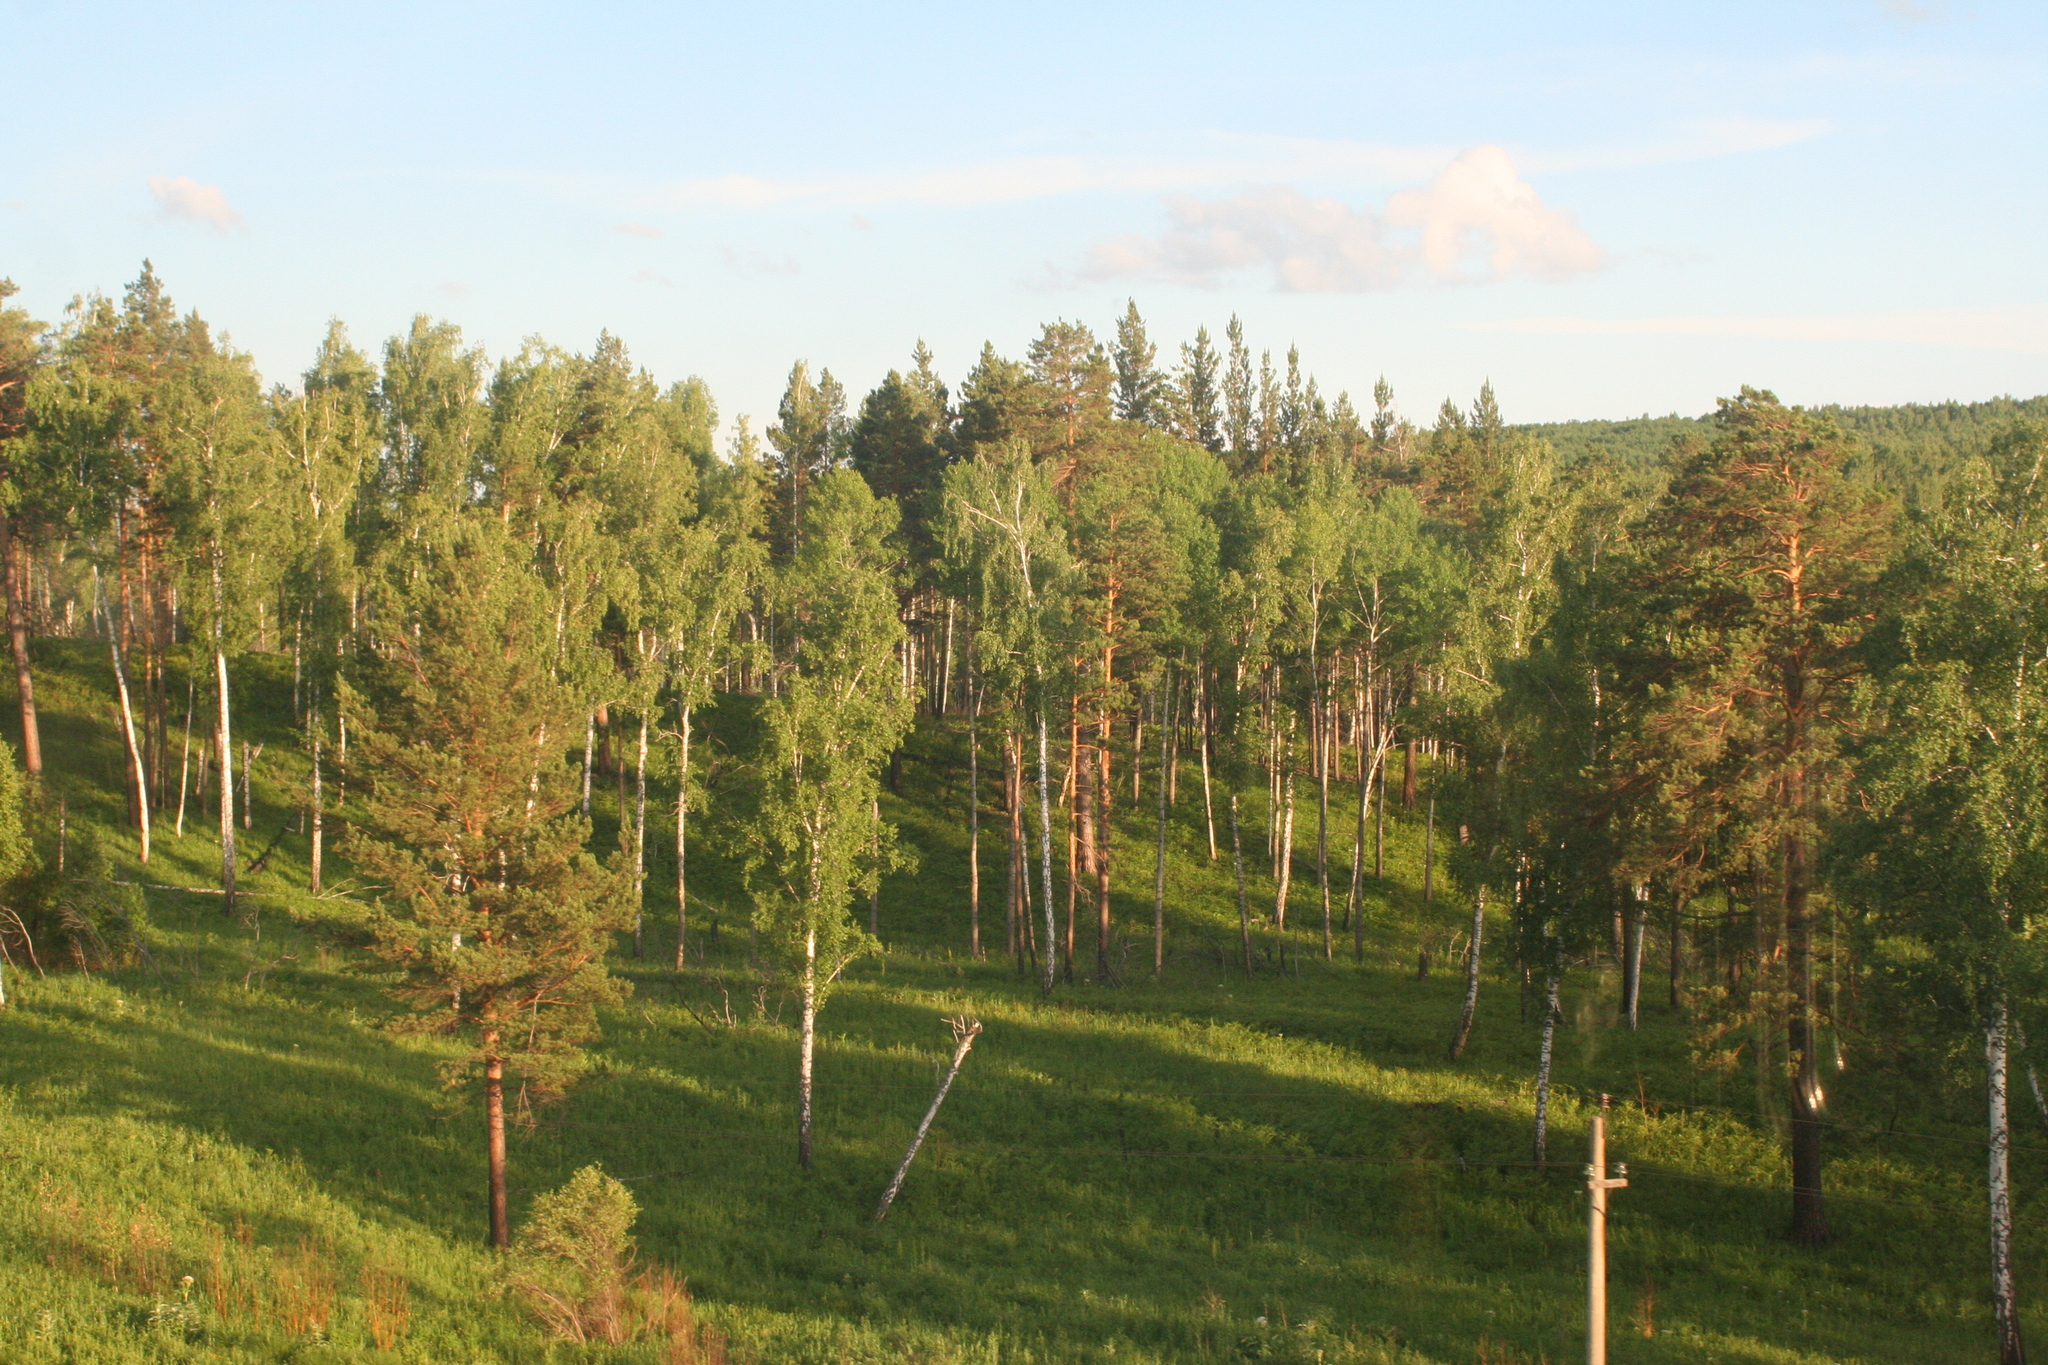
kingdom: Plantae
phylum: Tracheophyta
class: Pinopsida
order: Pinales
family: Pinaceae
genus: Pinus
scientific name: Pinus sylvestris
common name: Scots pine
